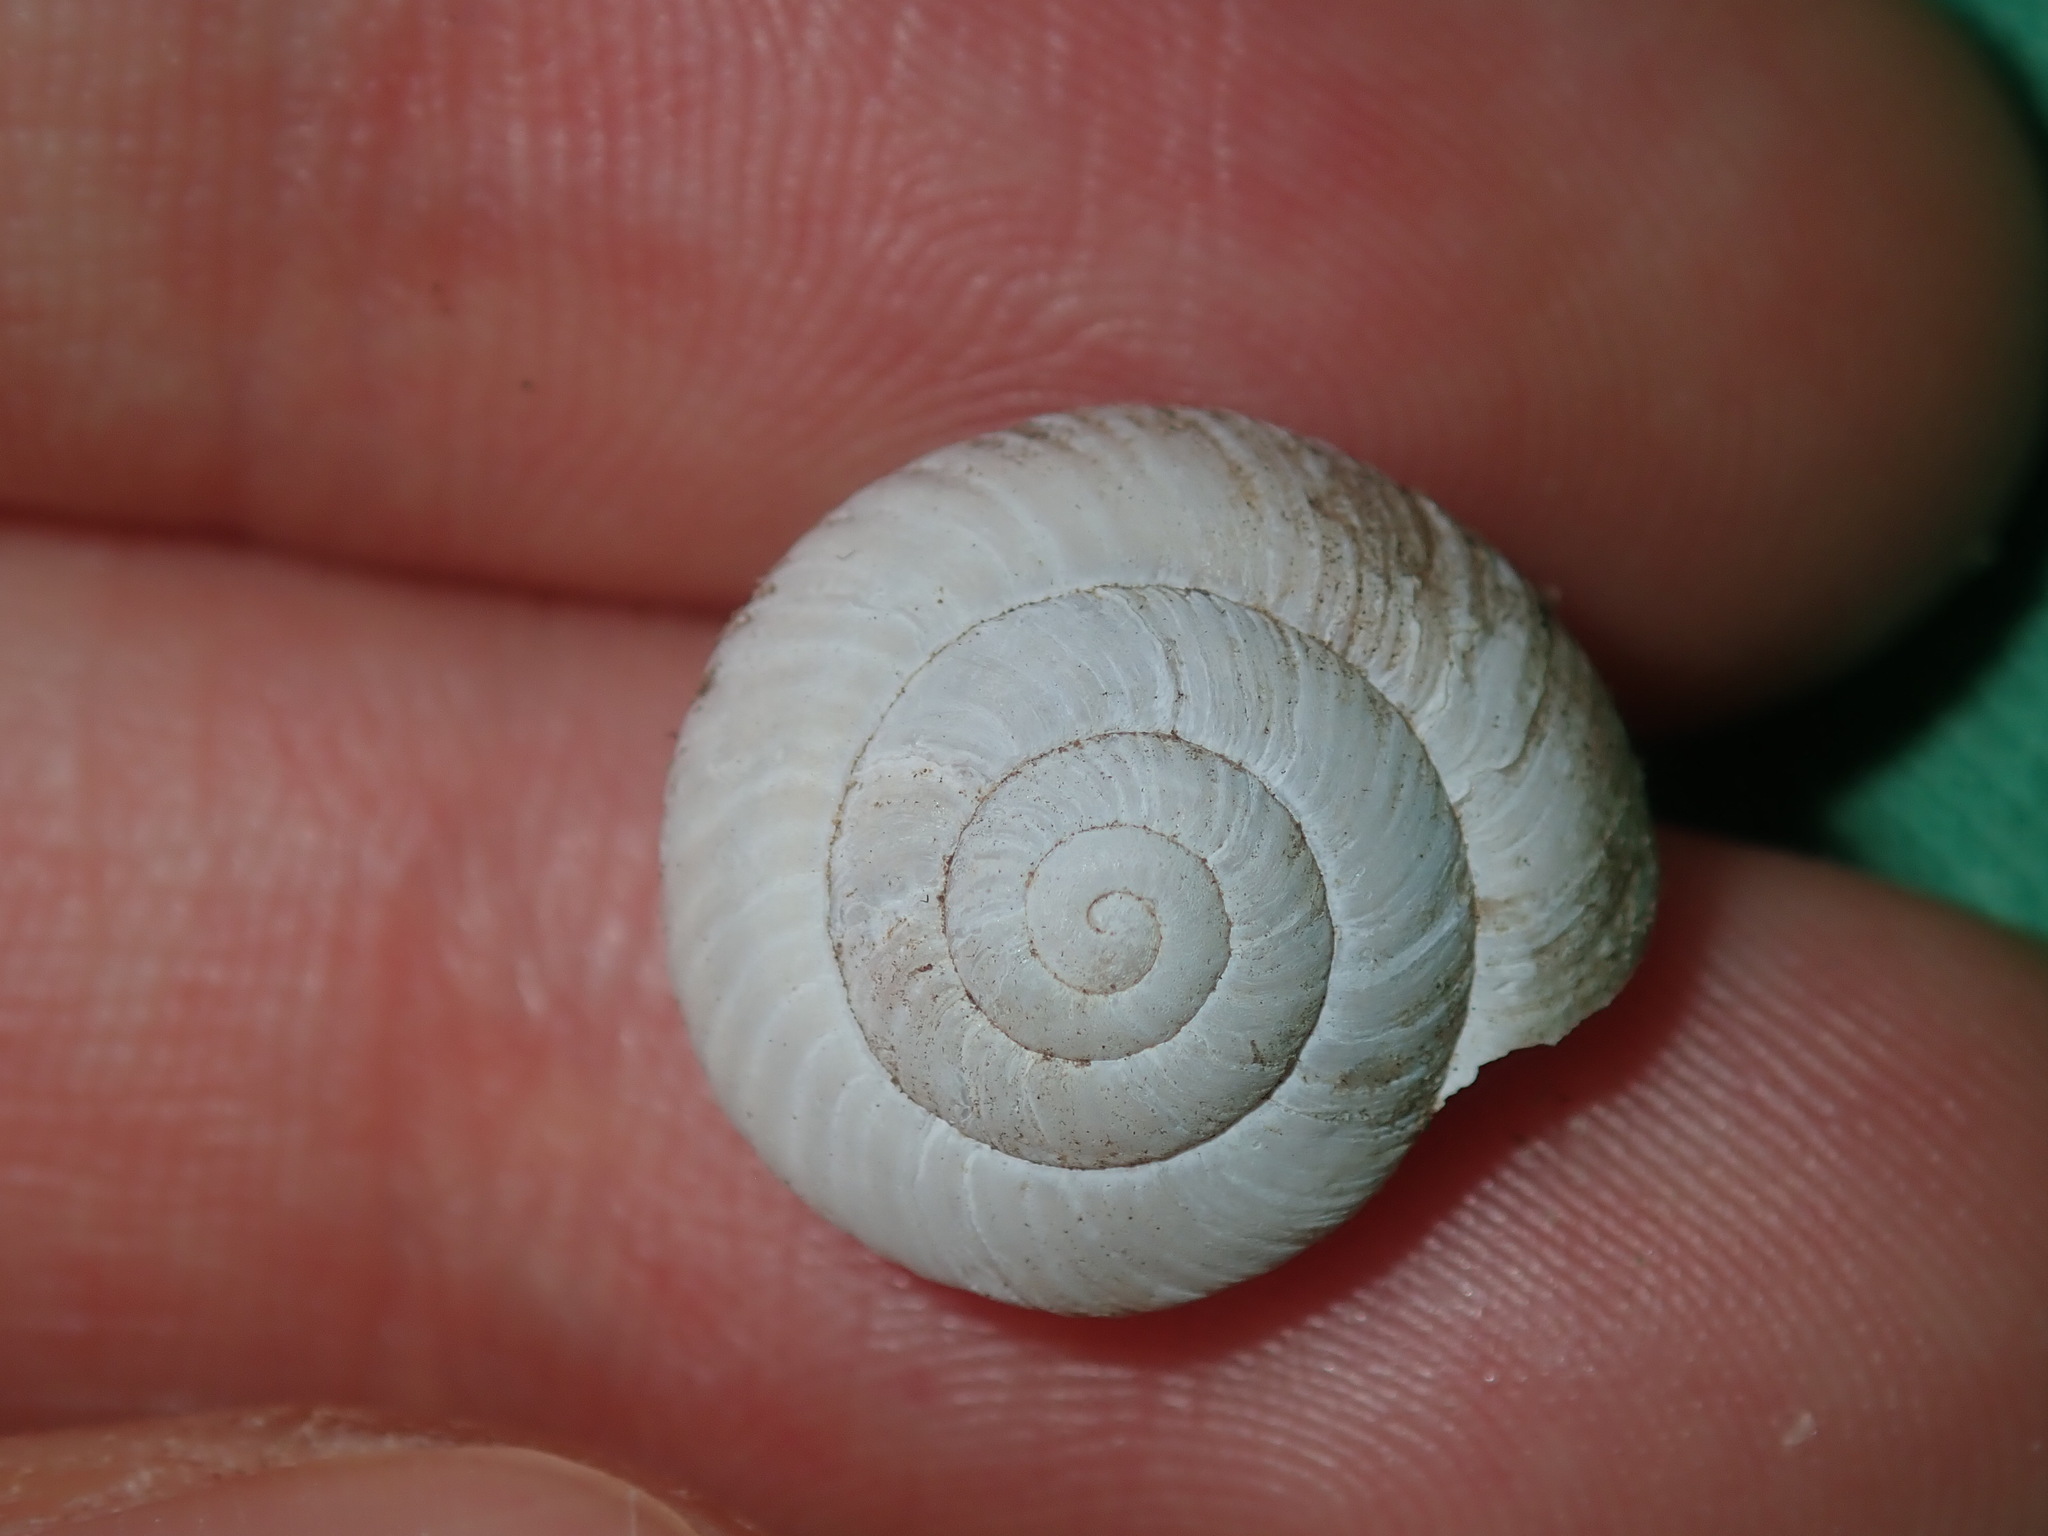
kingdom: Animalia
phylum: Mollusca
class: Gastropoda
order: Stylommatophora
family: Camaenidae
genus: Sauroconcha
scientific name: Sauroconcha sheai
